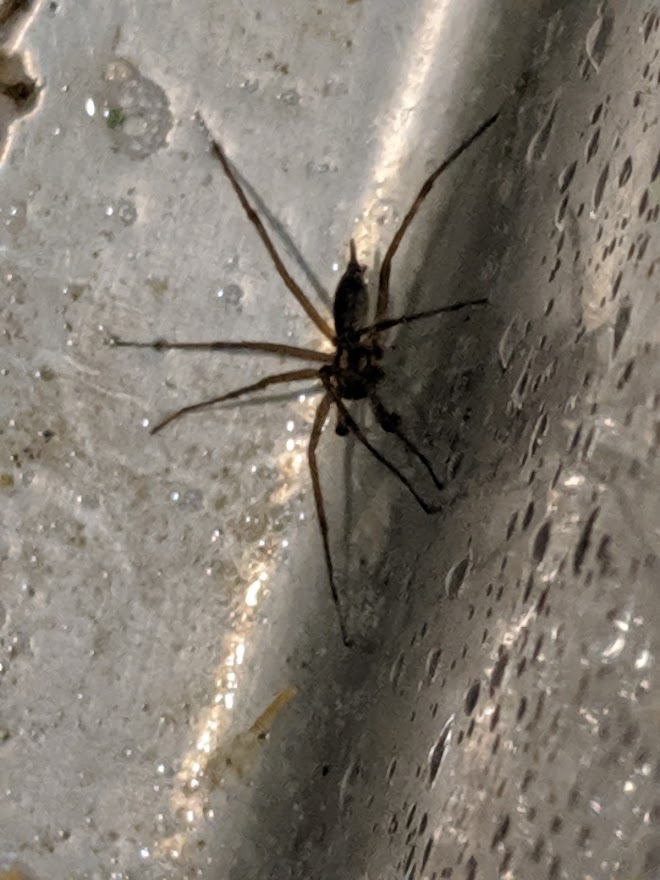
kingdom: Animalia
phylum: Arthropoda
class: Arachnida
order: Araneae
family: Agelenidae
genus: Agelenopsis
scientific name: Agelenopsis
